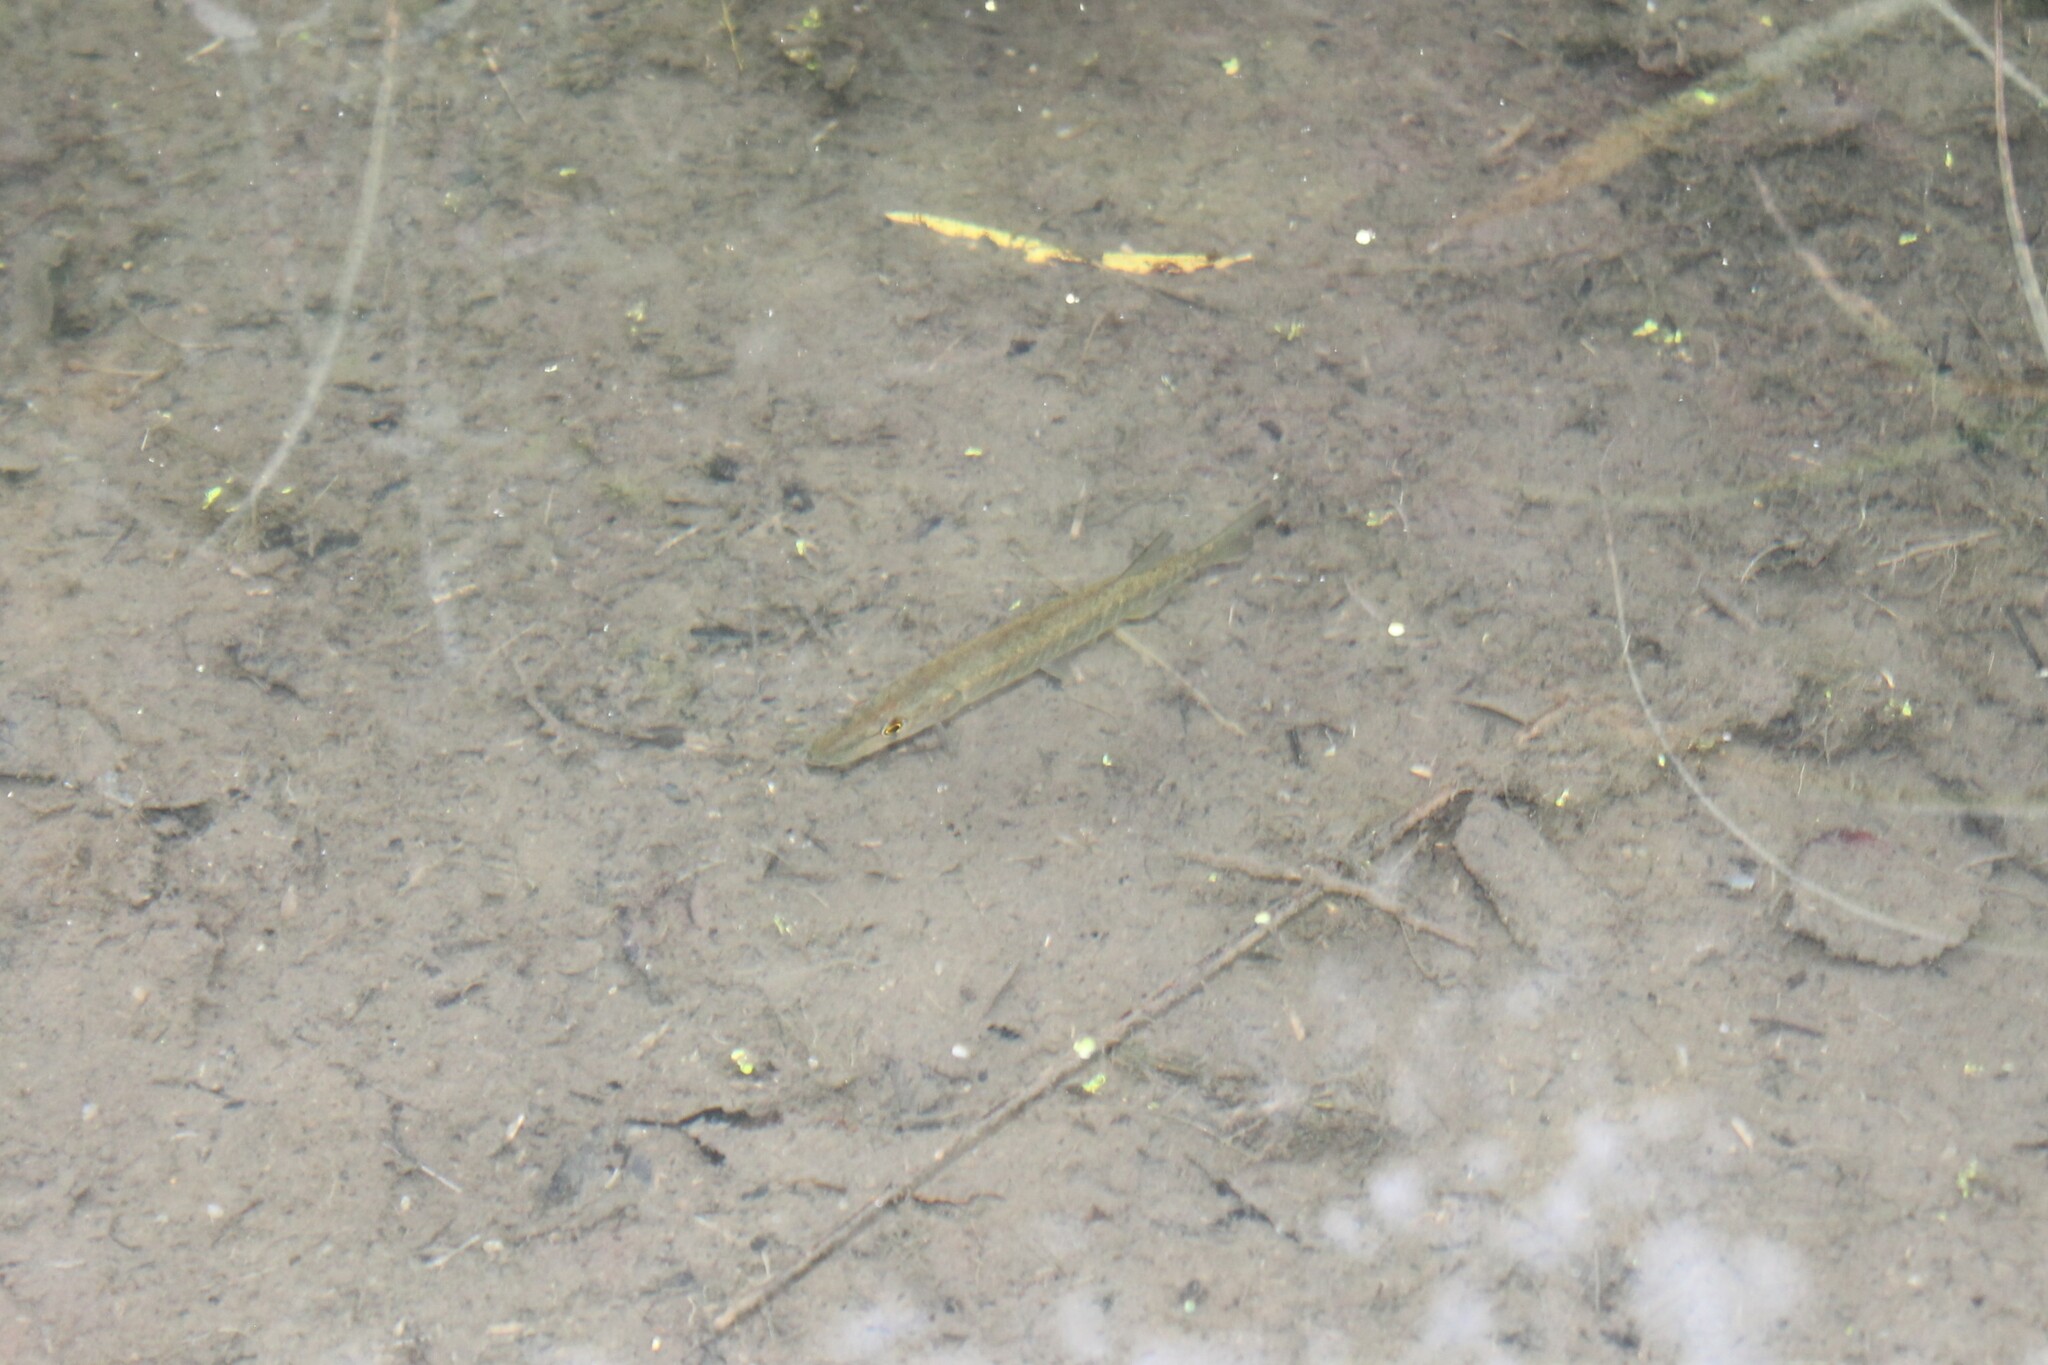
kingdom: Animalia
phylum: Chordata
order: Esociformes
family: Esocidae
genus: Esox
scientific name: Esox americanus
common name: Redfin pickerel
